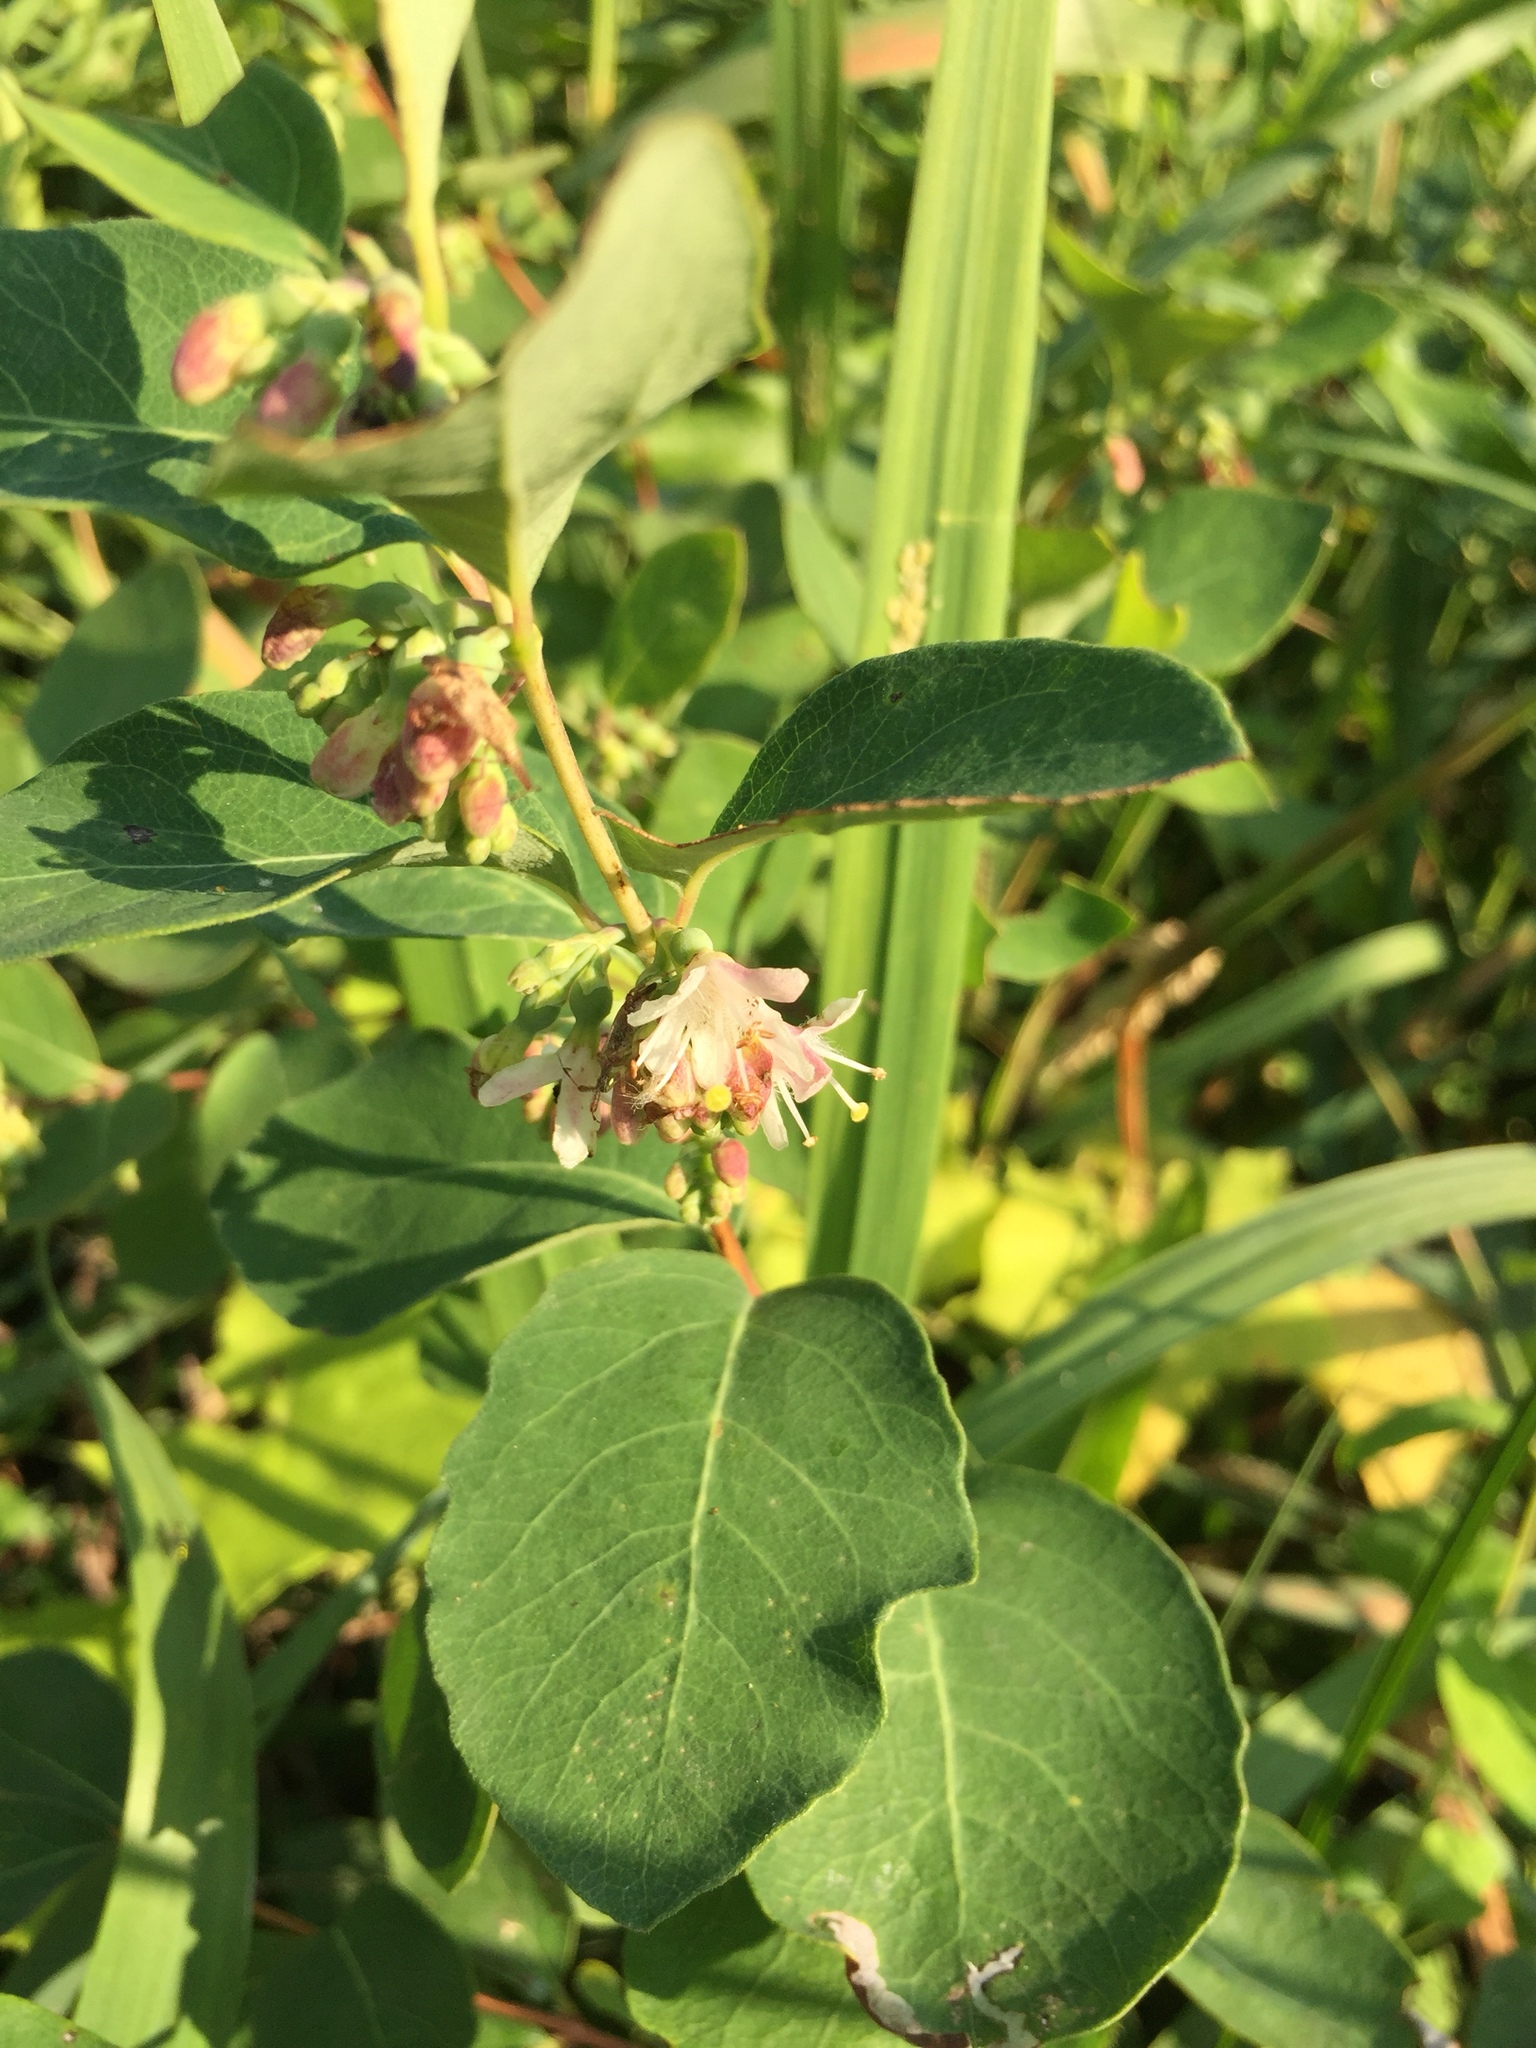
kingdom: Plantae
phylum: Tracheophyta
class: Magnoliopsida
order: Dipsacales
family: Caprifoliaceae
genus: Symphoricarpos
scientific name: Symphoricarpos occidentalis
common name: Wolfberry
